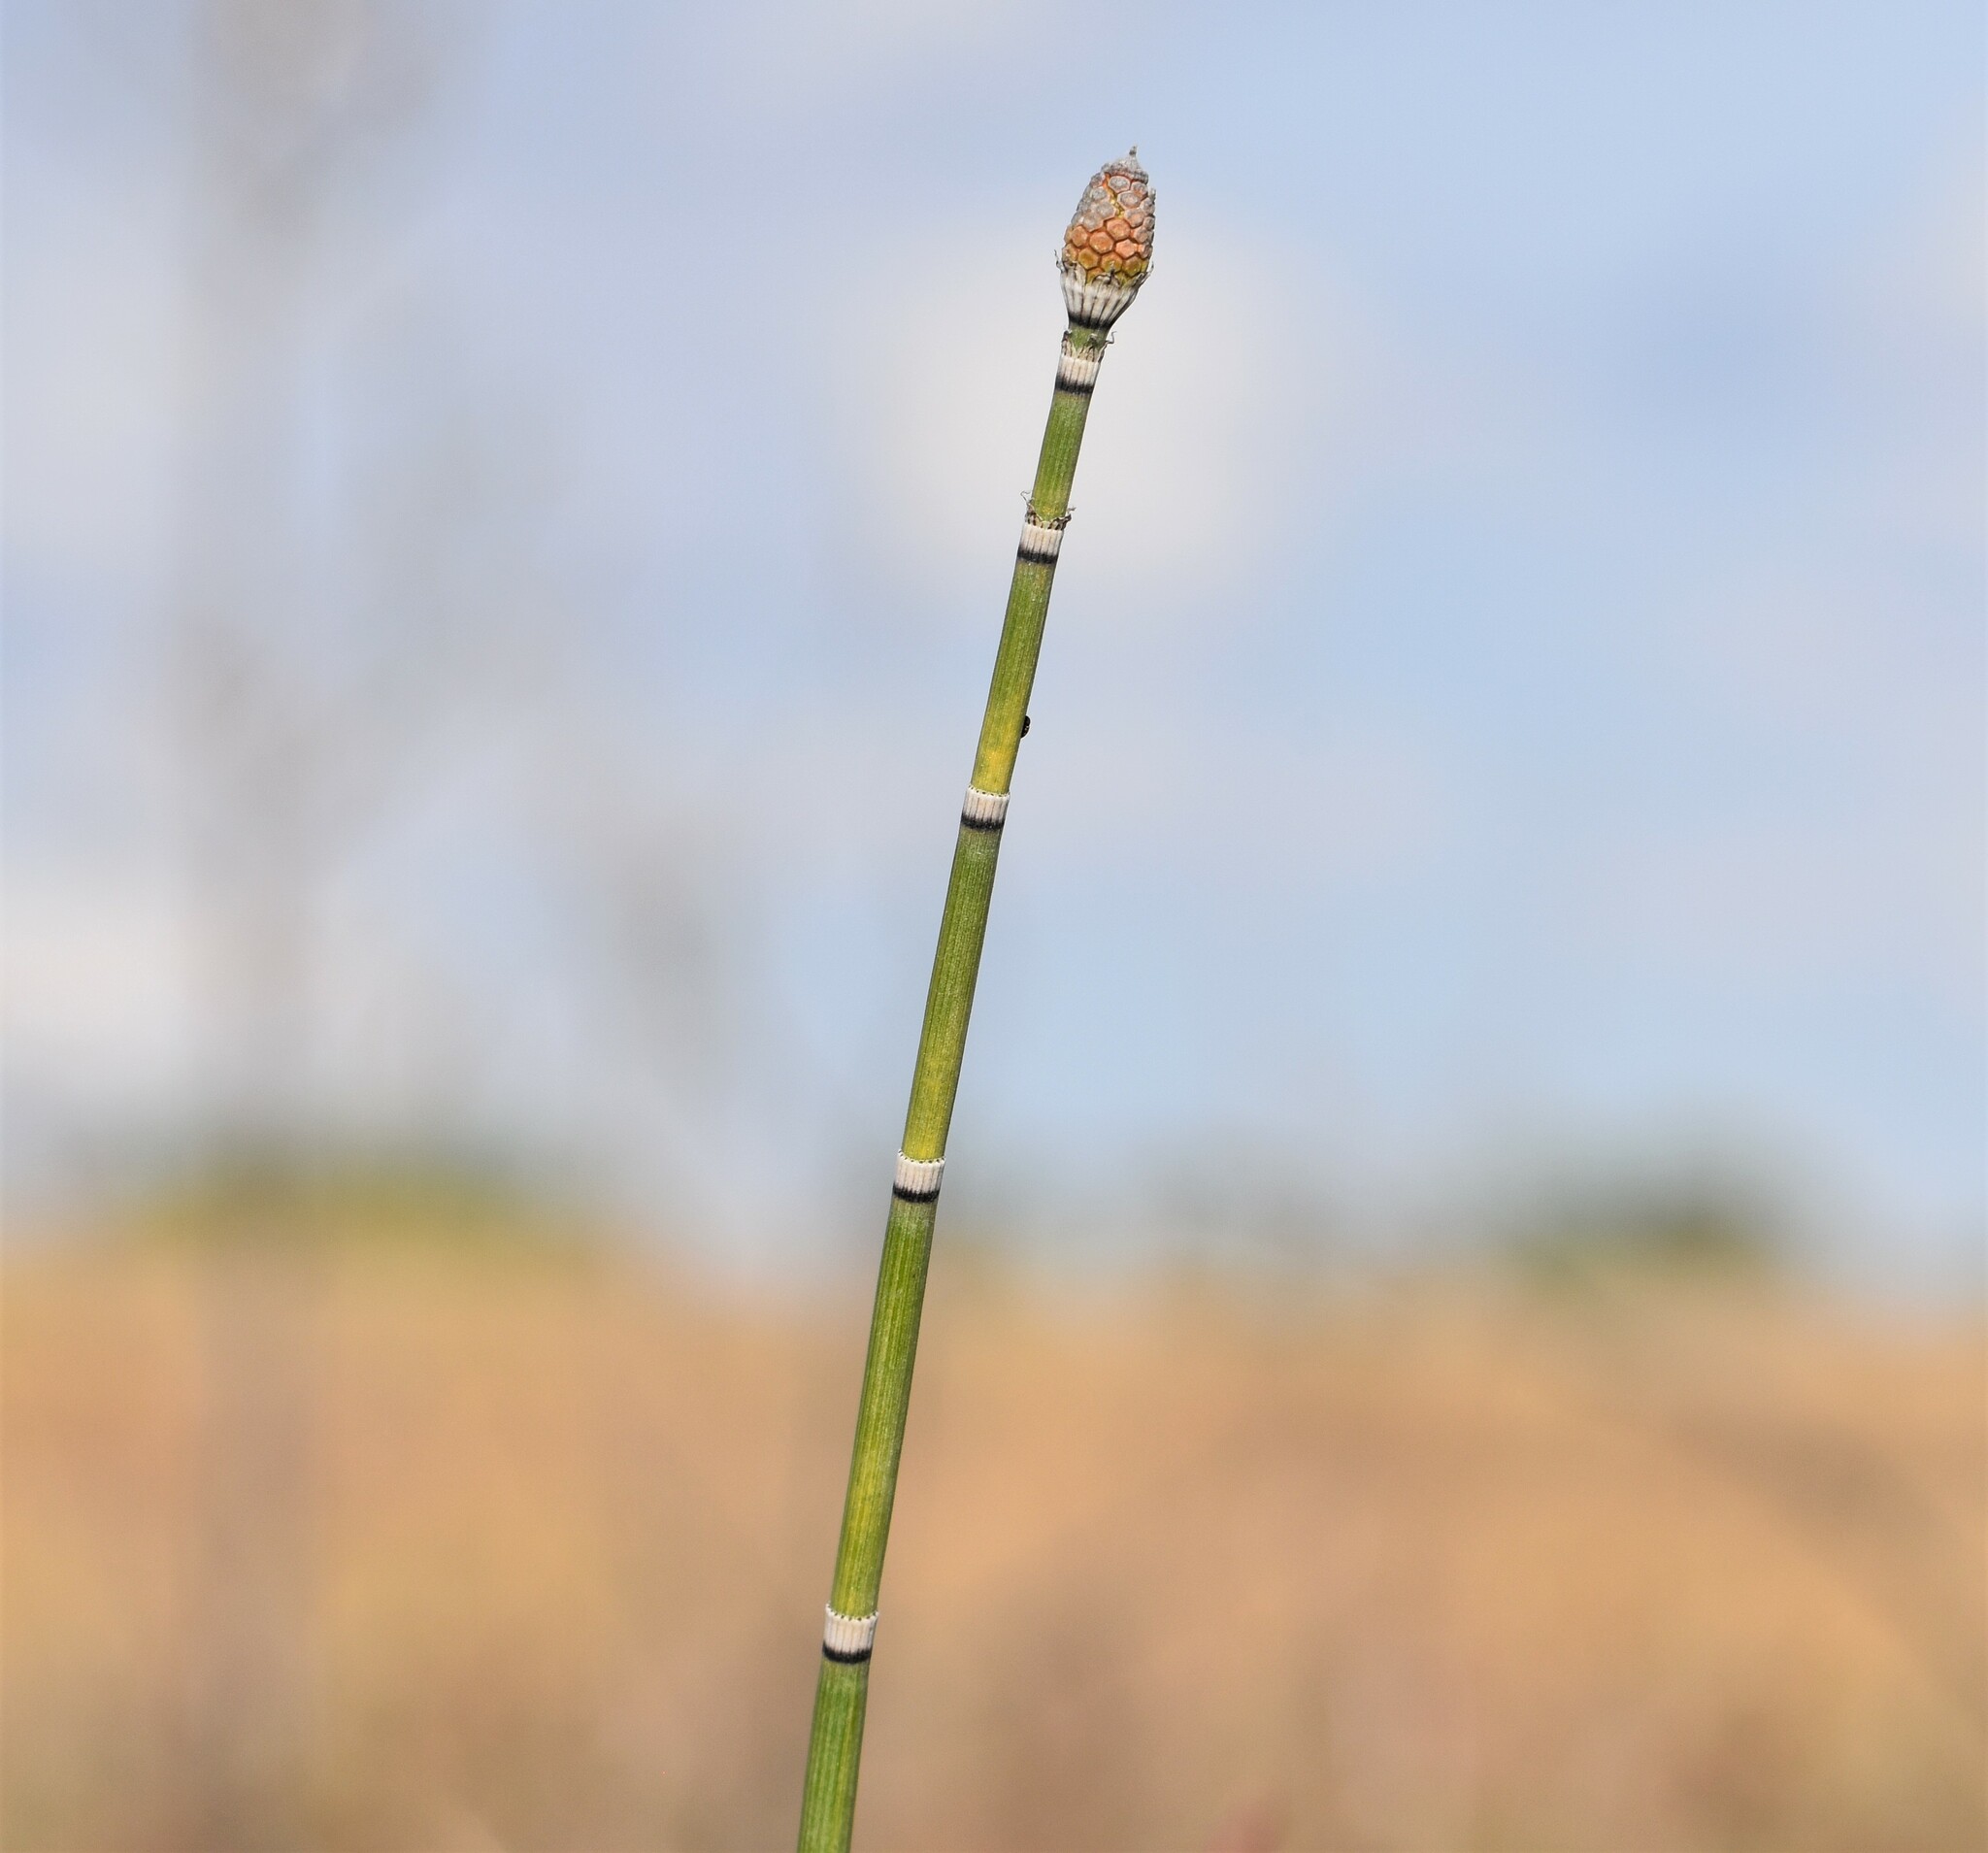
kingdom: Plantae
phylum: Tracheophyta
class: Polypodiopsida
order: Equisetales
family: Equisetaceae
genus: Equisetum
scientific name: Equisetum hyemale
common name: Rough horsetail
